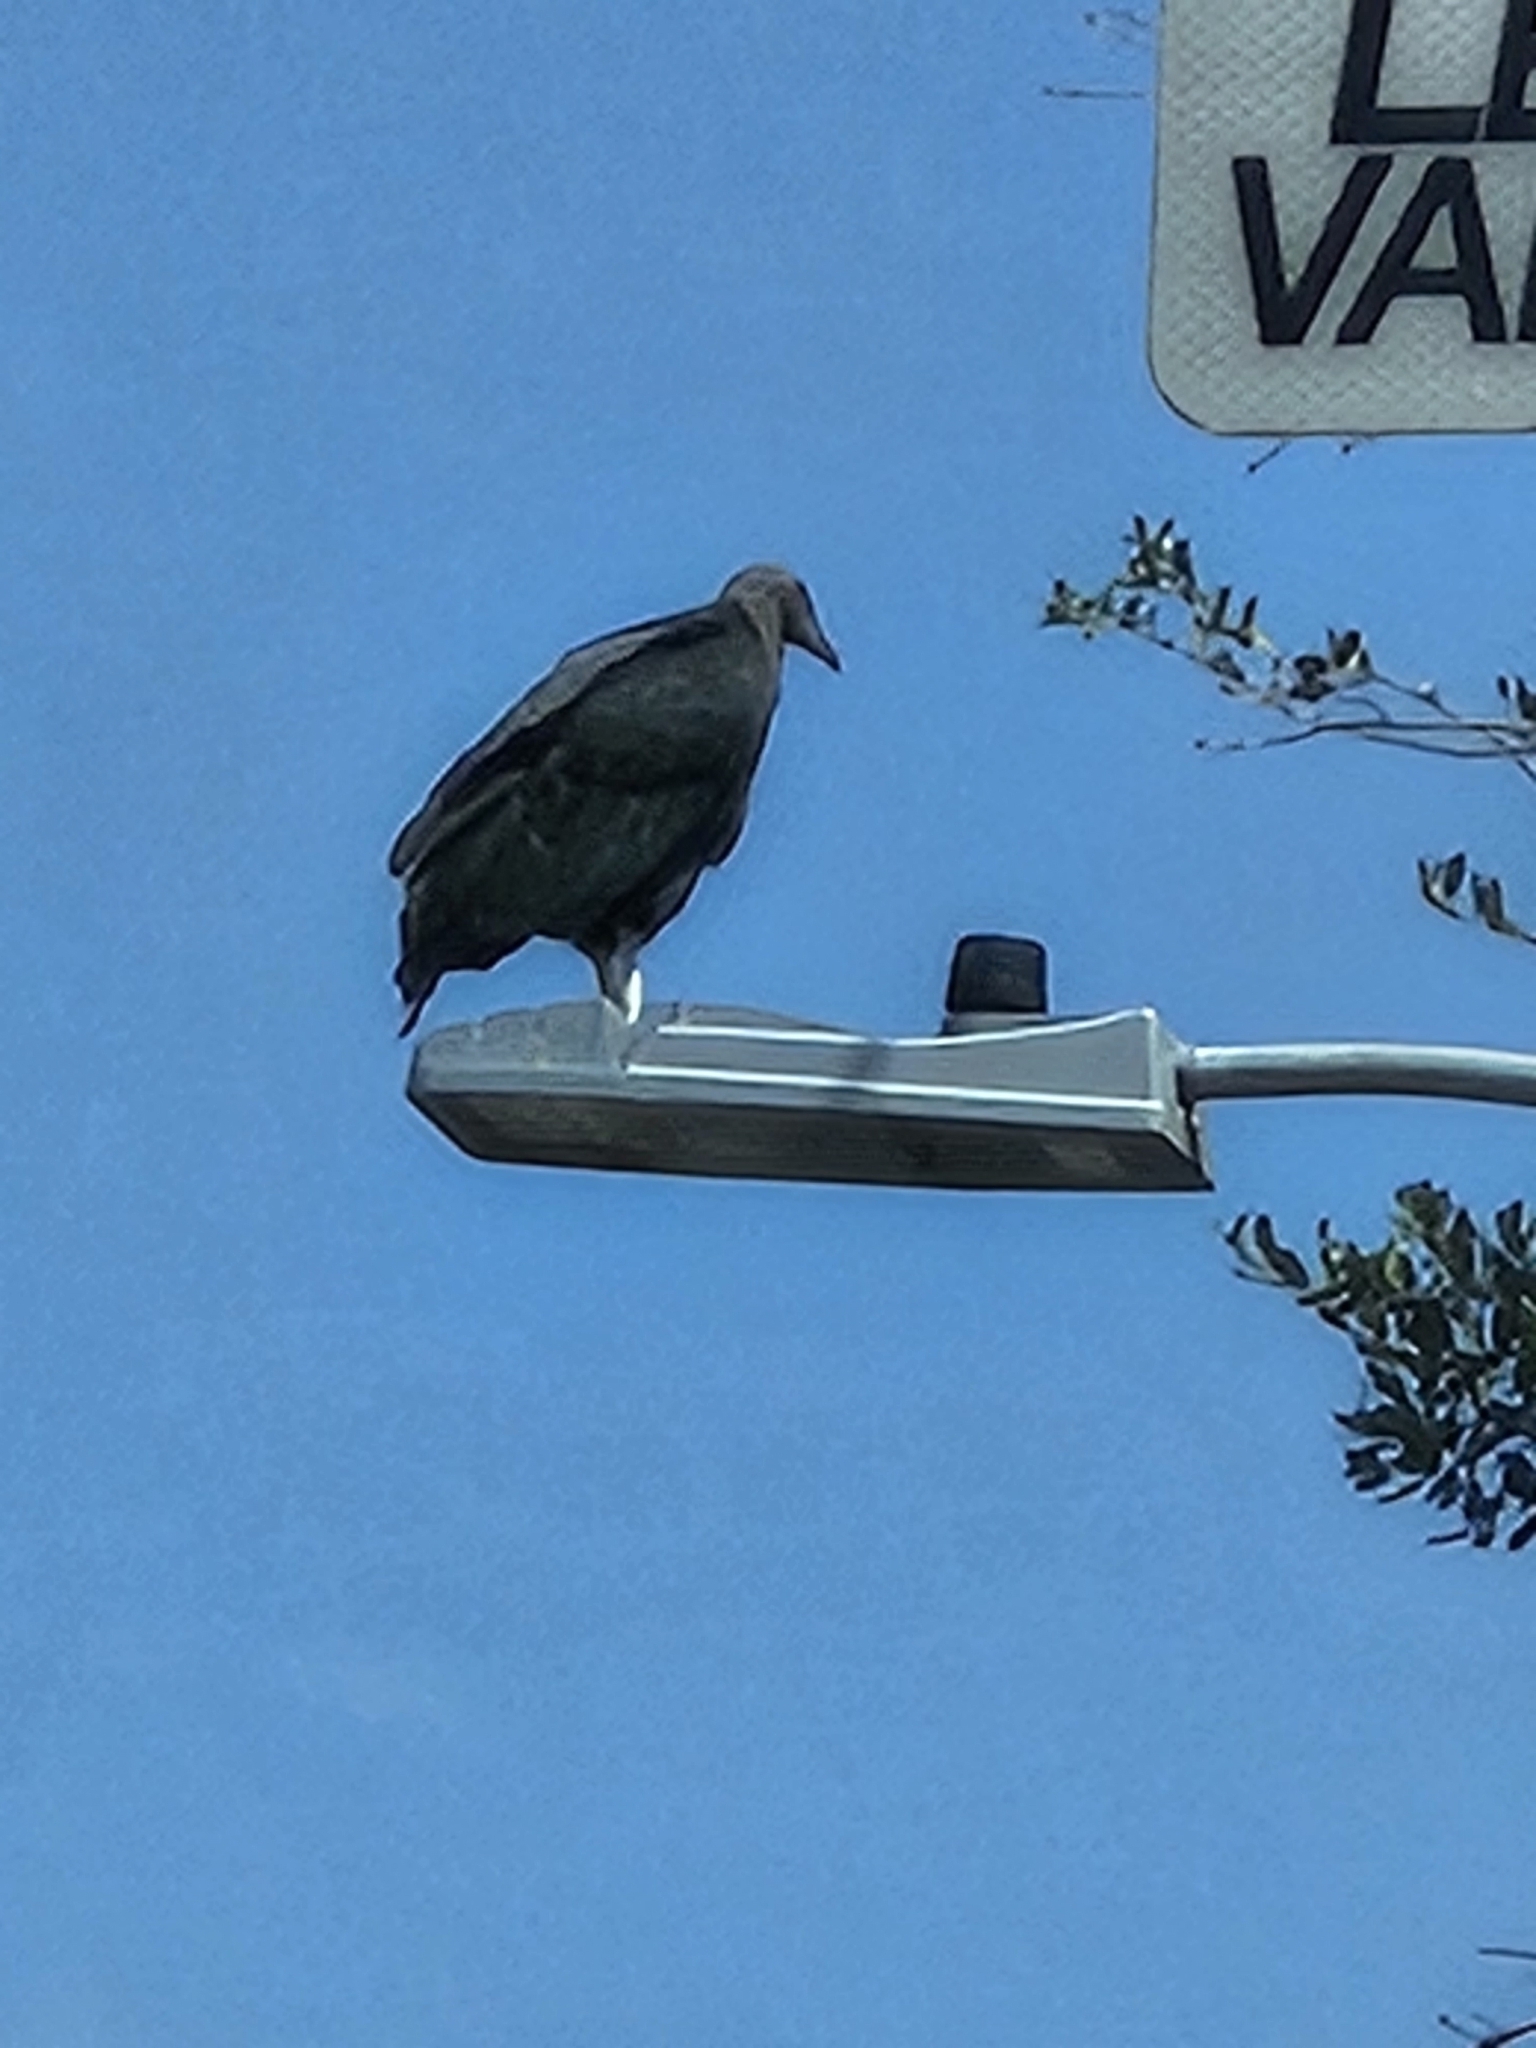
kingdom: Animalia
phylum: Chordata
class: Aves
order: Accipitriformes
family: Cathartidae
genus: Coragyps
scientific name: Coragyps atratus
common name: Black vulture
